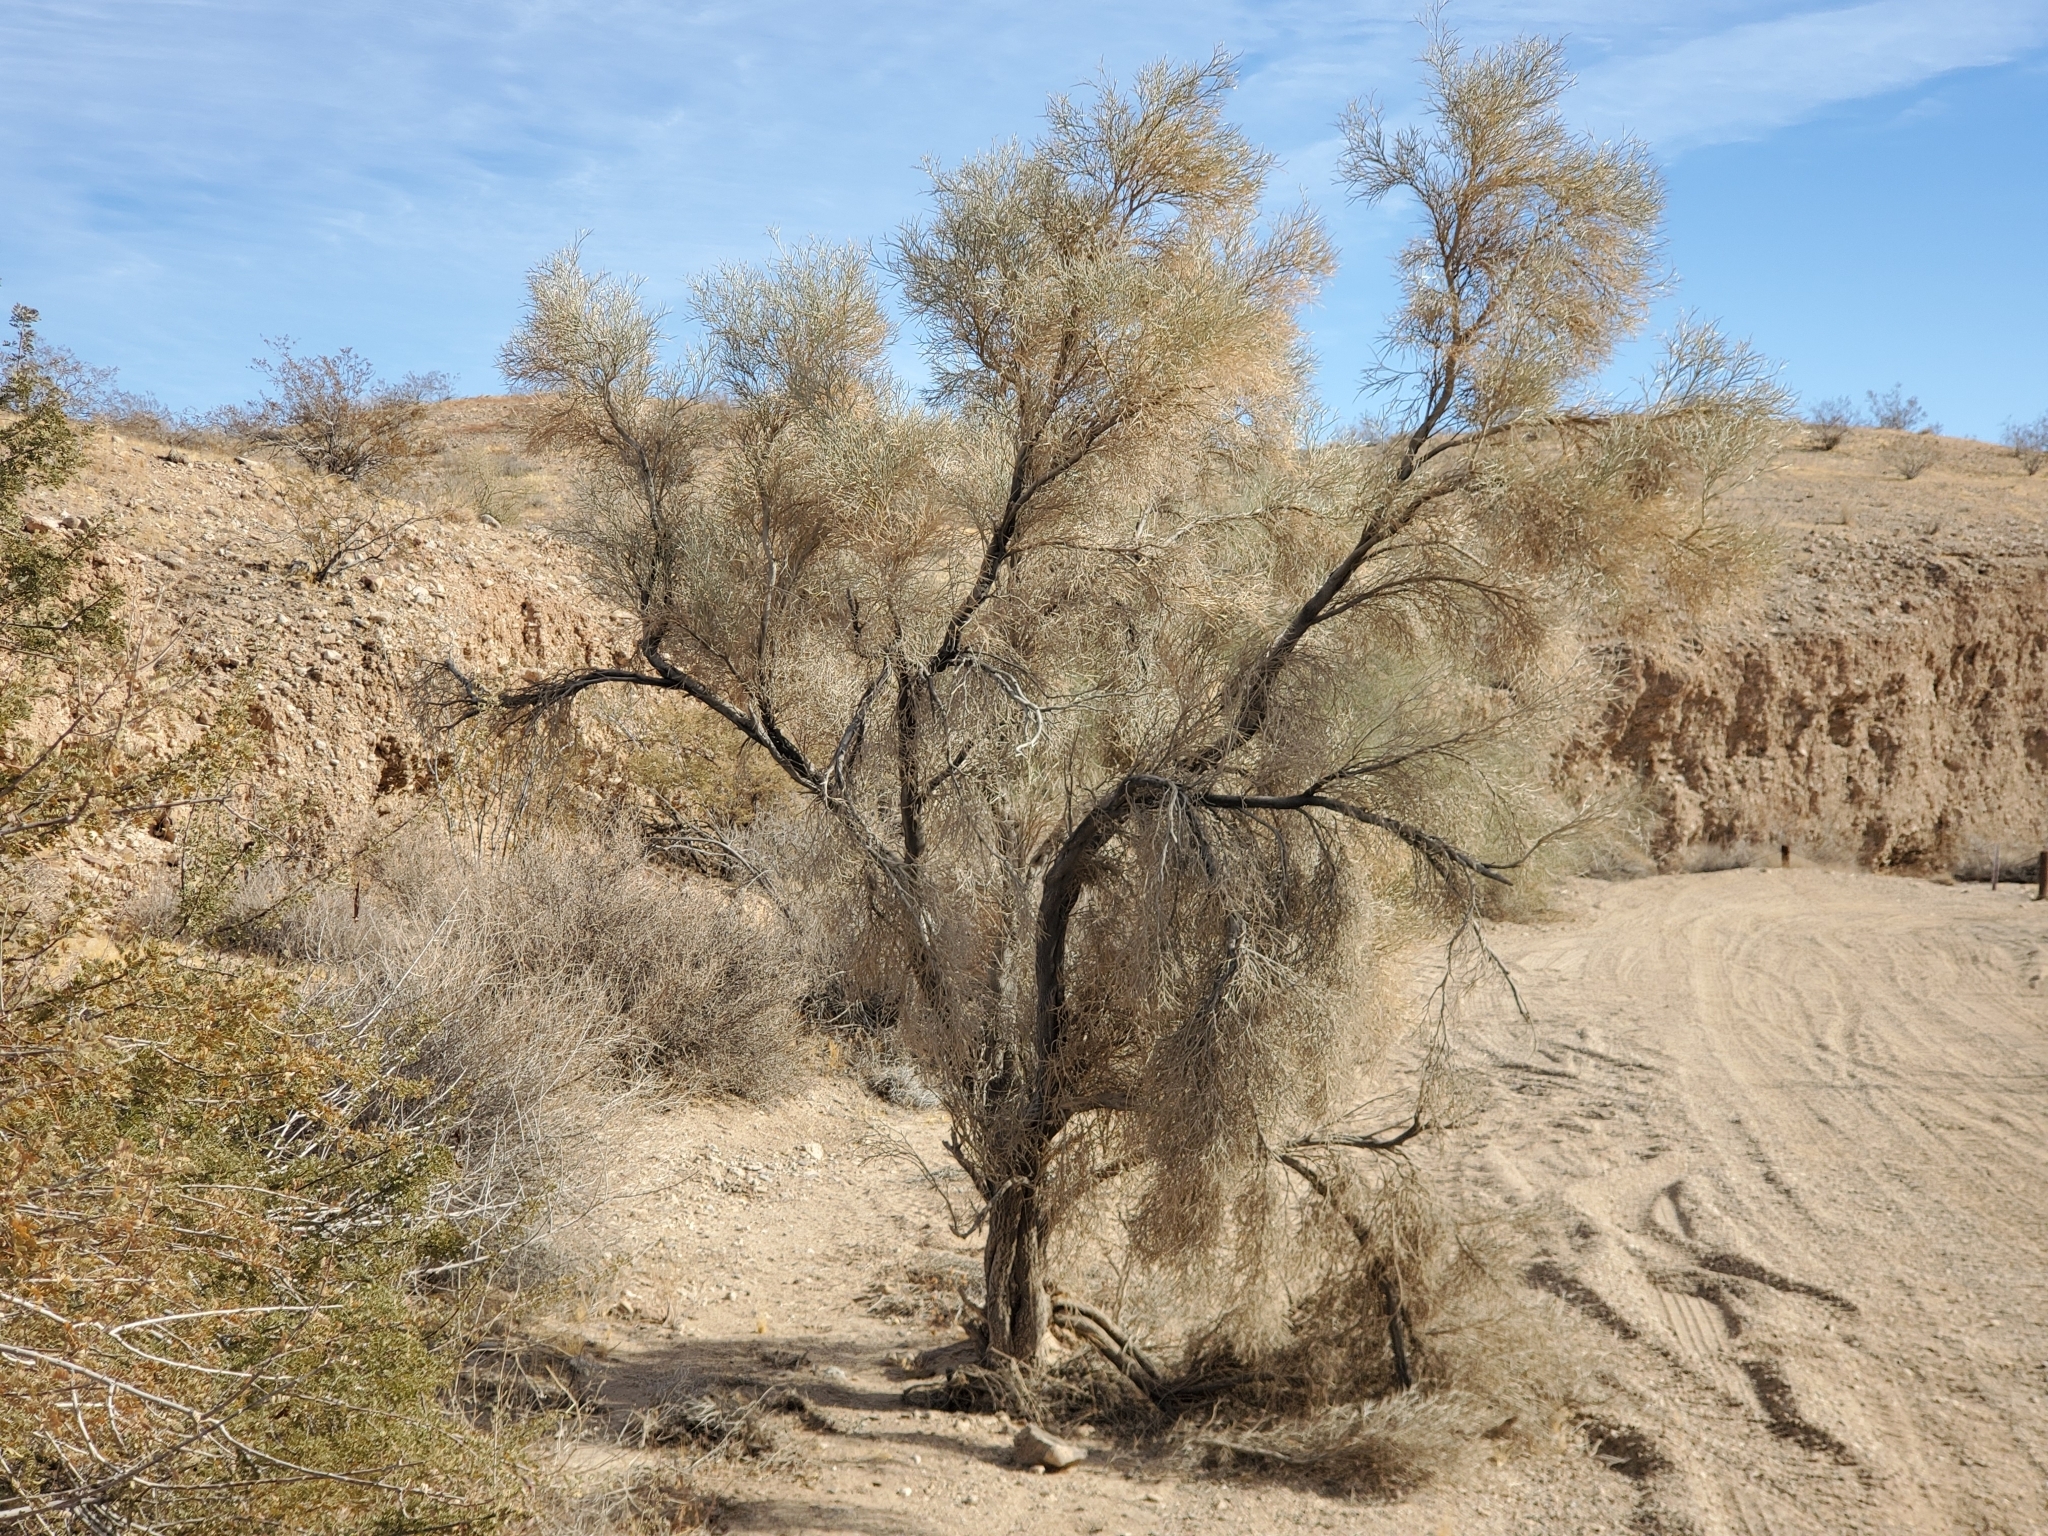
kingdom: Plantae
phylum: Tracheophyta
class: Magnoliopsida
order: Fabales
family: Fabaceae
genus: Psorothamnus
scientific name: Psorothamnus spinosus
